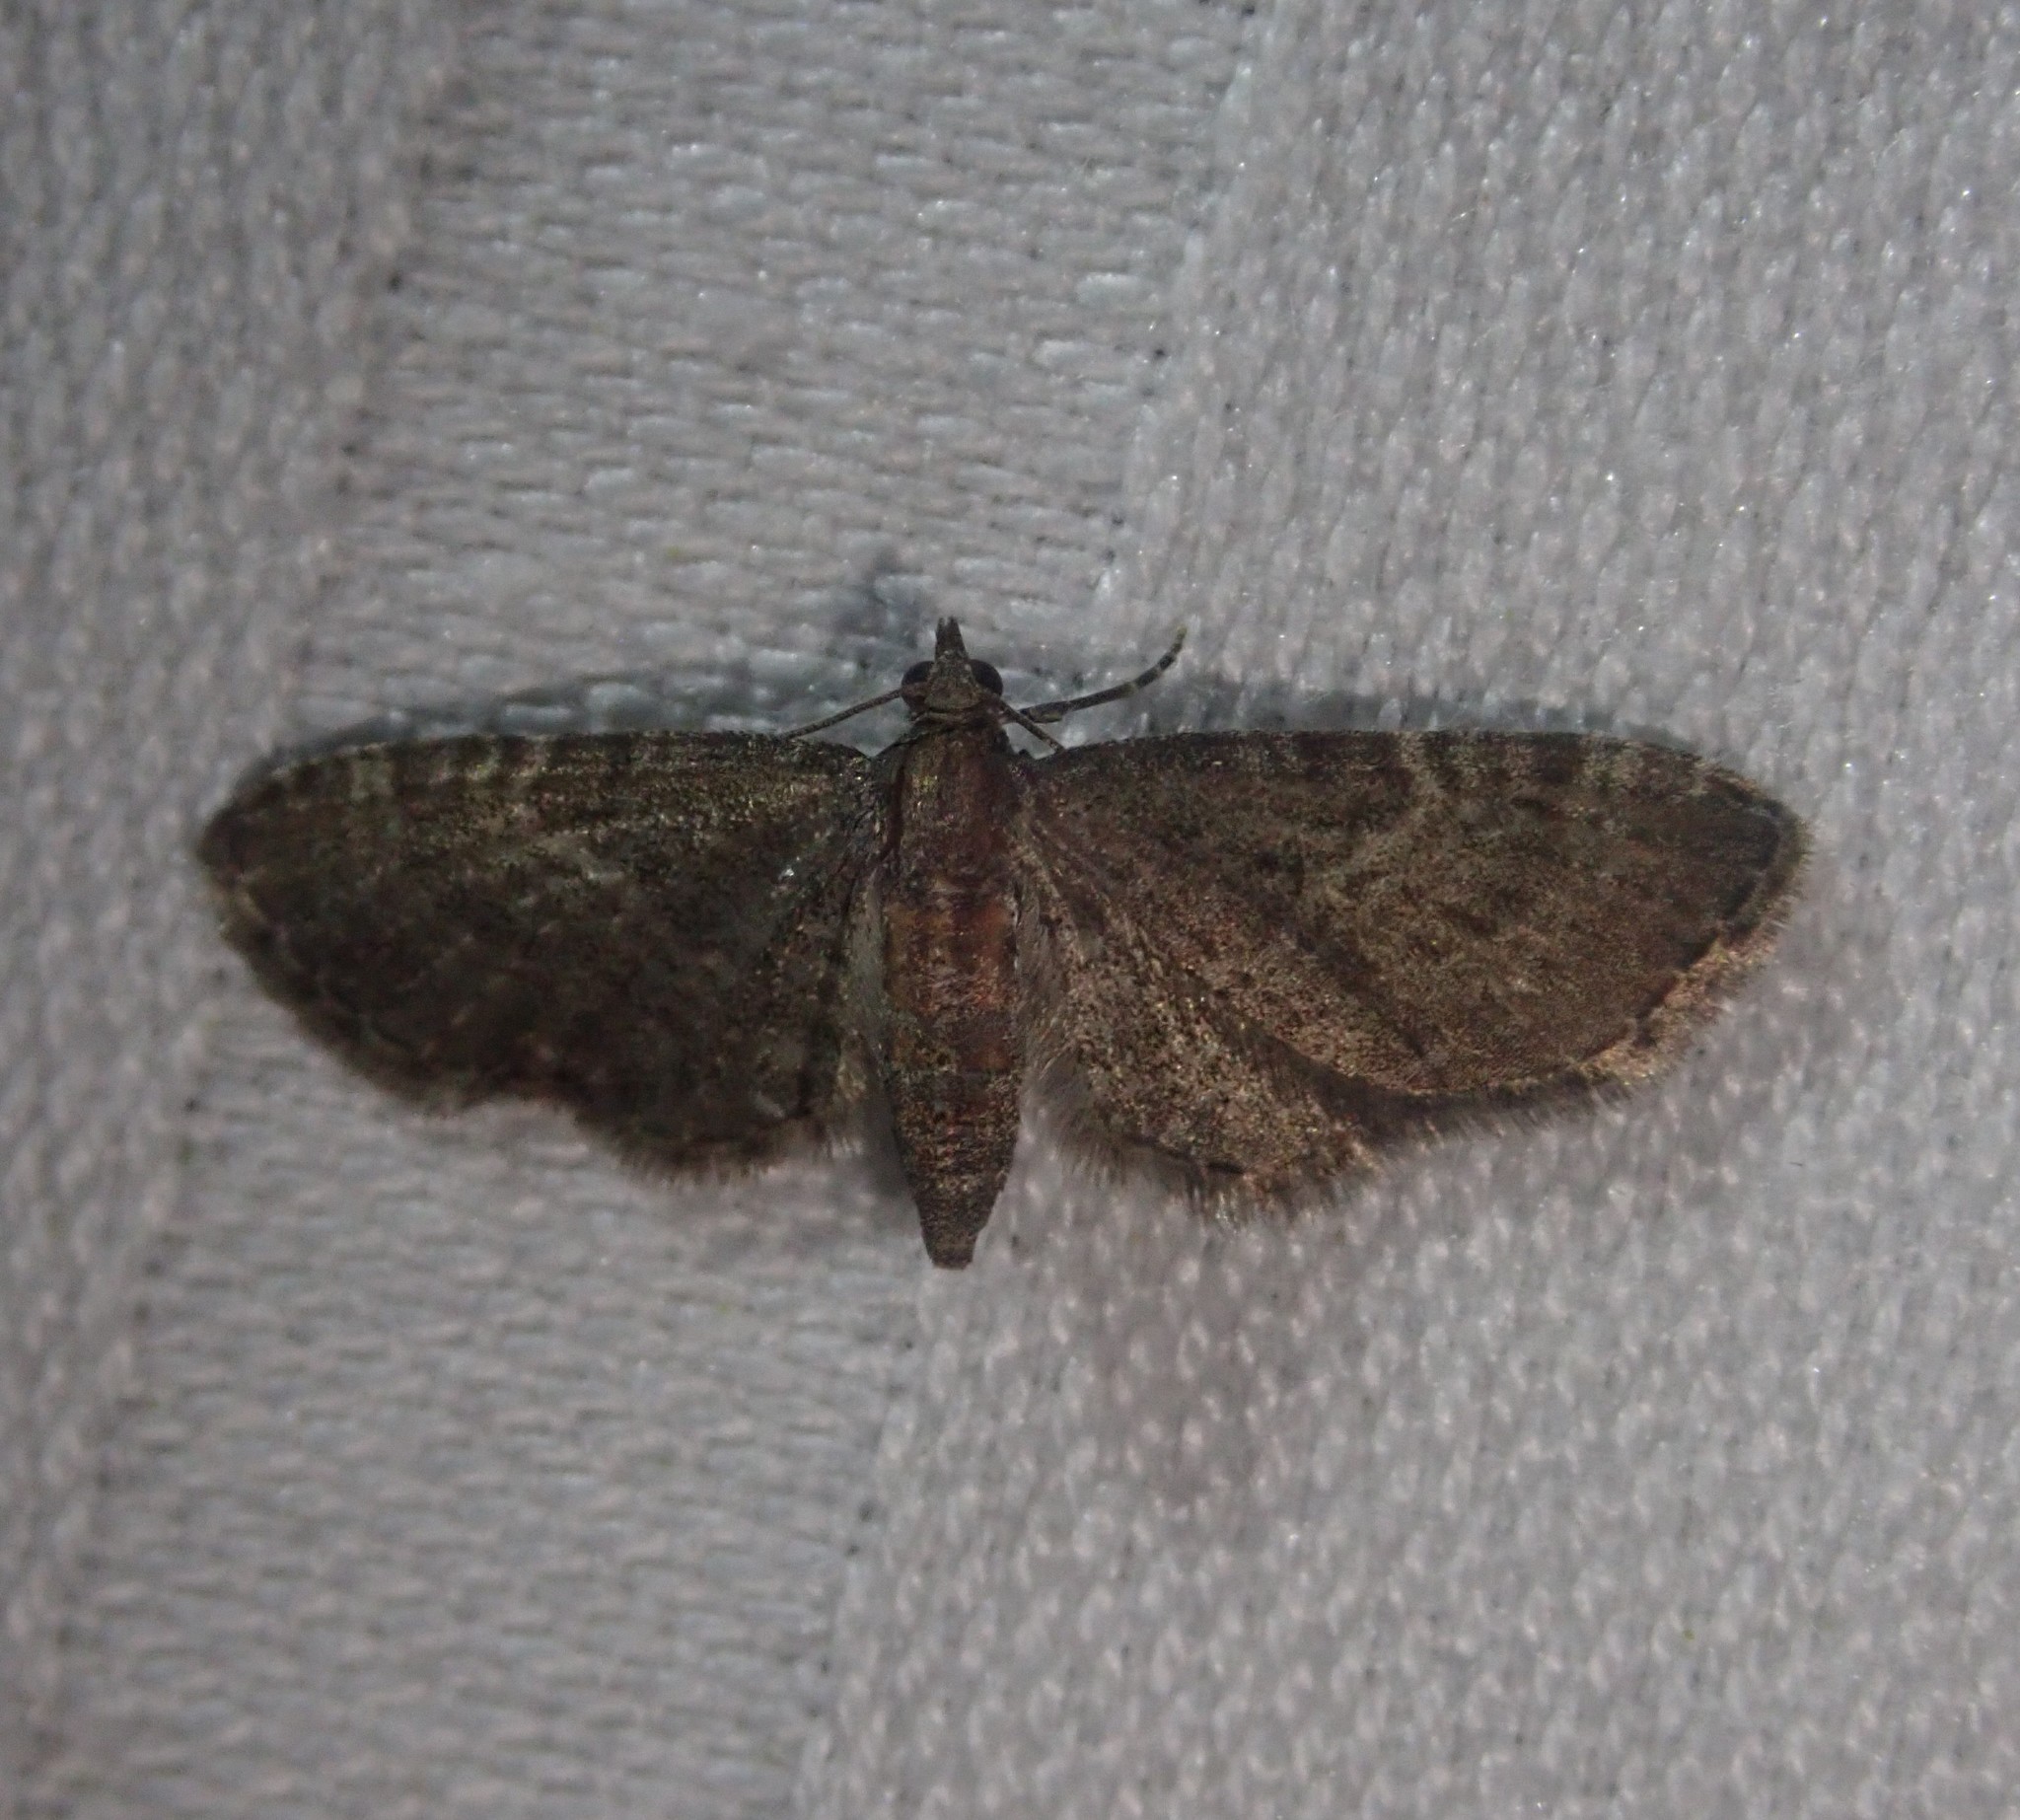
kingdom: Animalia
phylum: Arthropoda
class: Insecta
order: Lepidoptera
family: Geometridae
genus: Eupithecia
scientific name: Eupithecia haworthiata
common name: Haworth's pug
